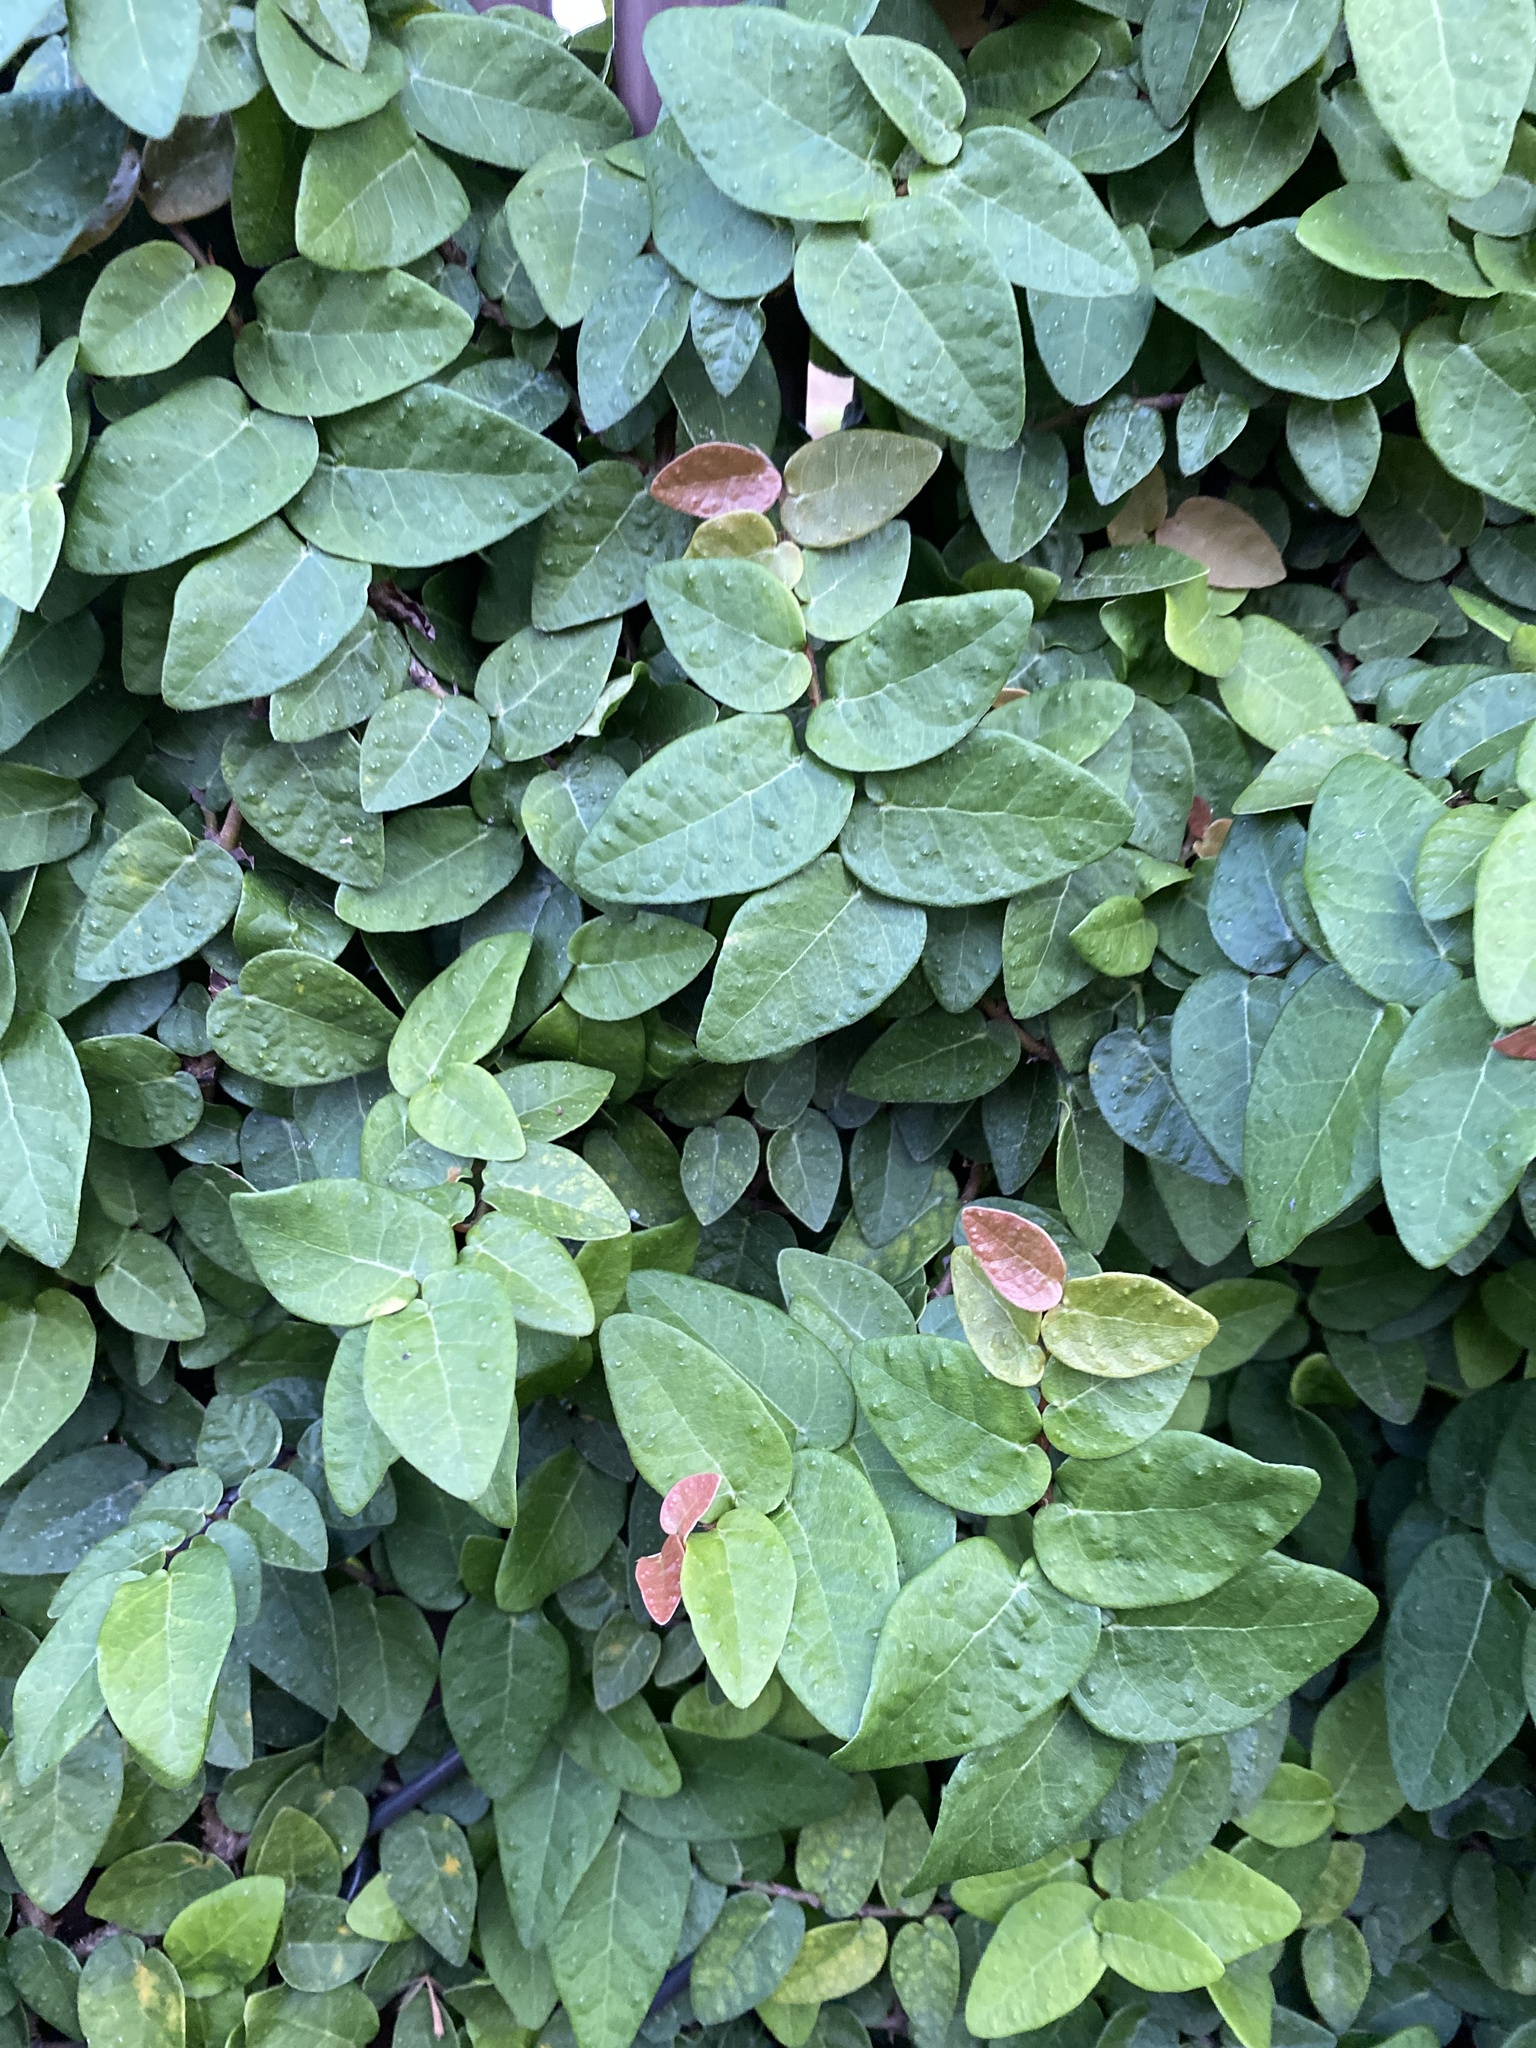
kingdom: Plantae
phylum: Tracheophyta
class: Magnoliopsida
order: Rosales
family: Moraceae
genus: Ficus
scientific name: Ficus pumila
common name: Climbingfig
